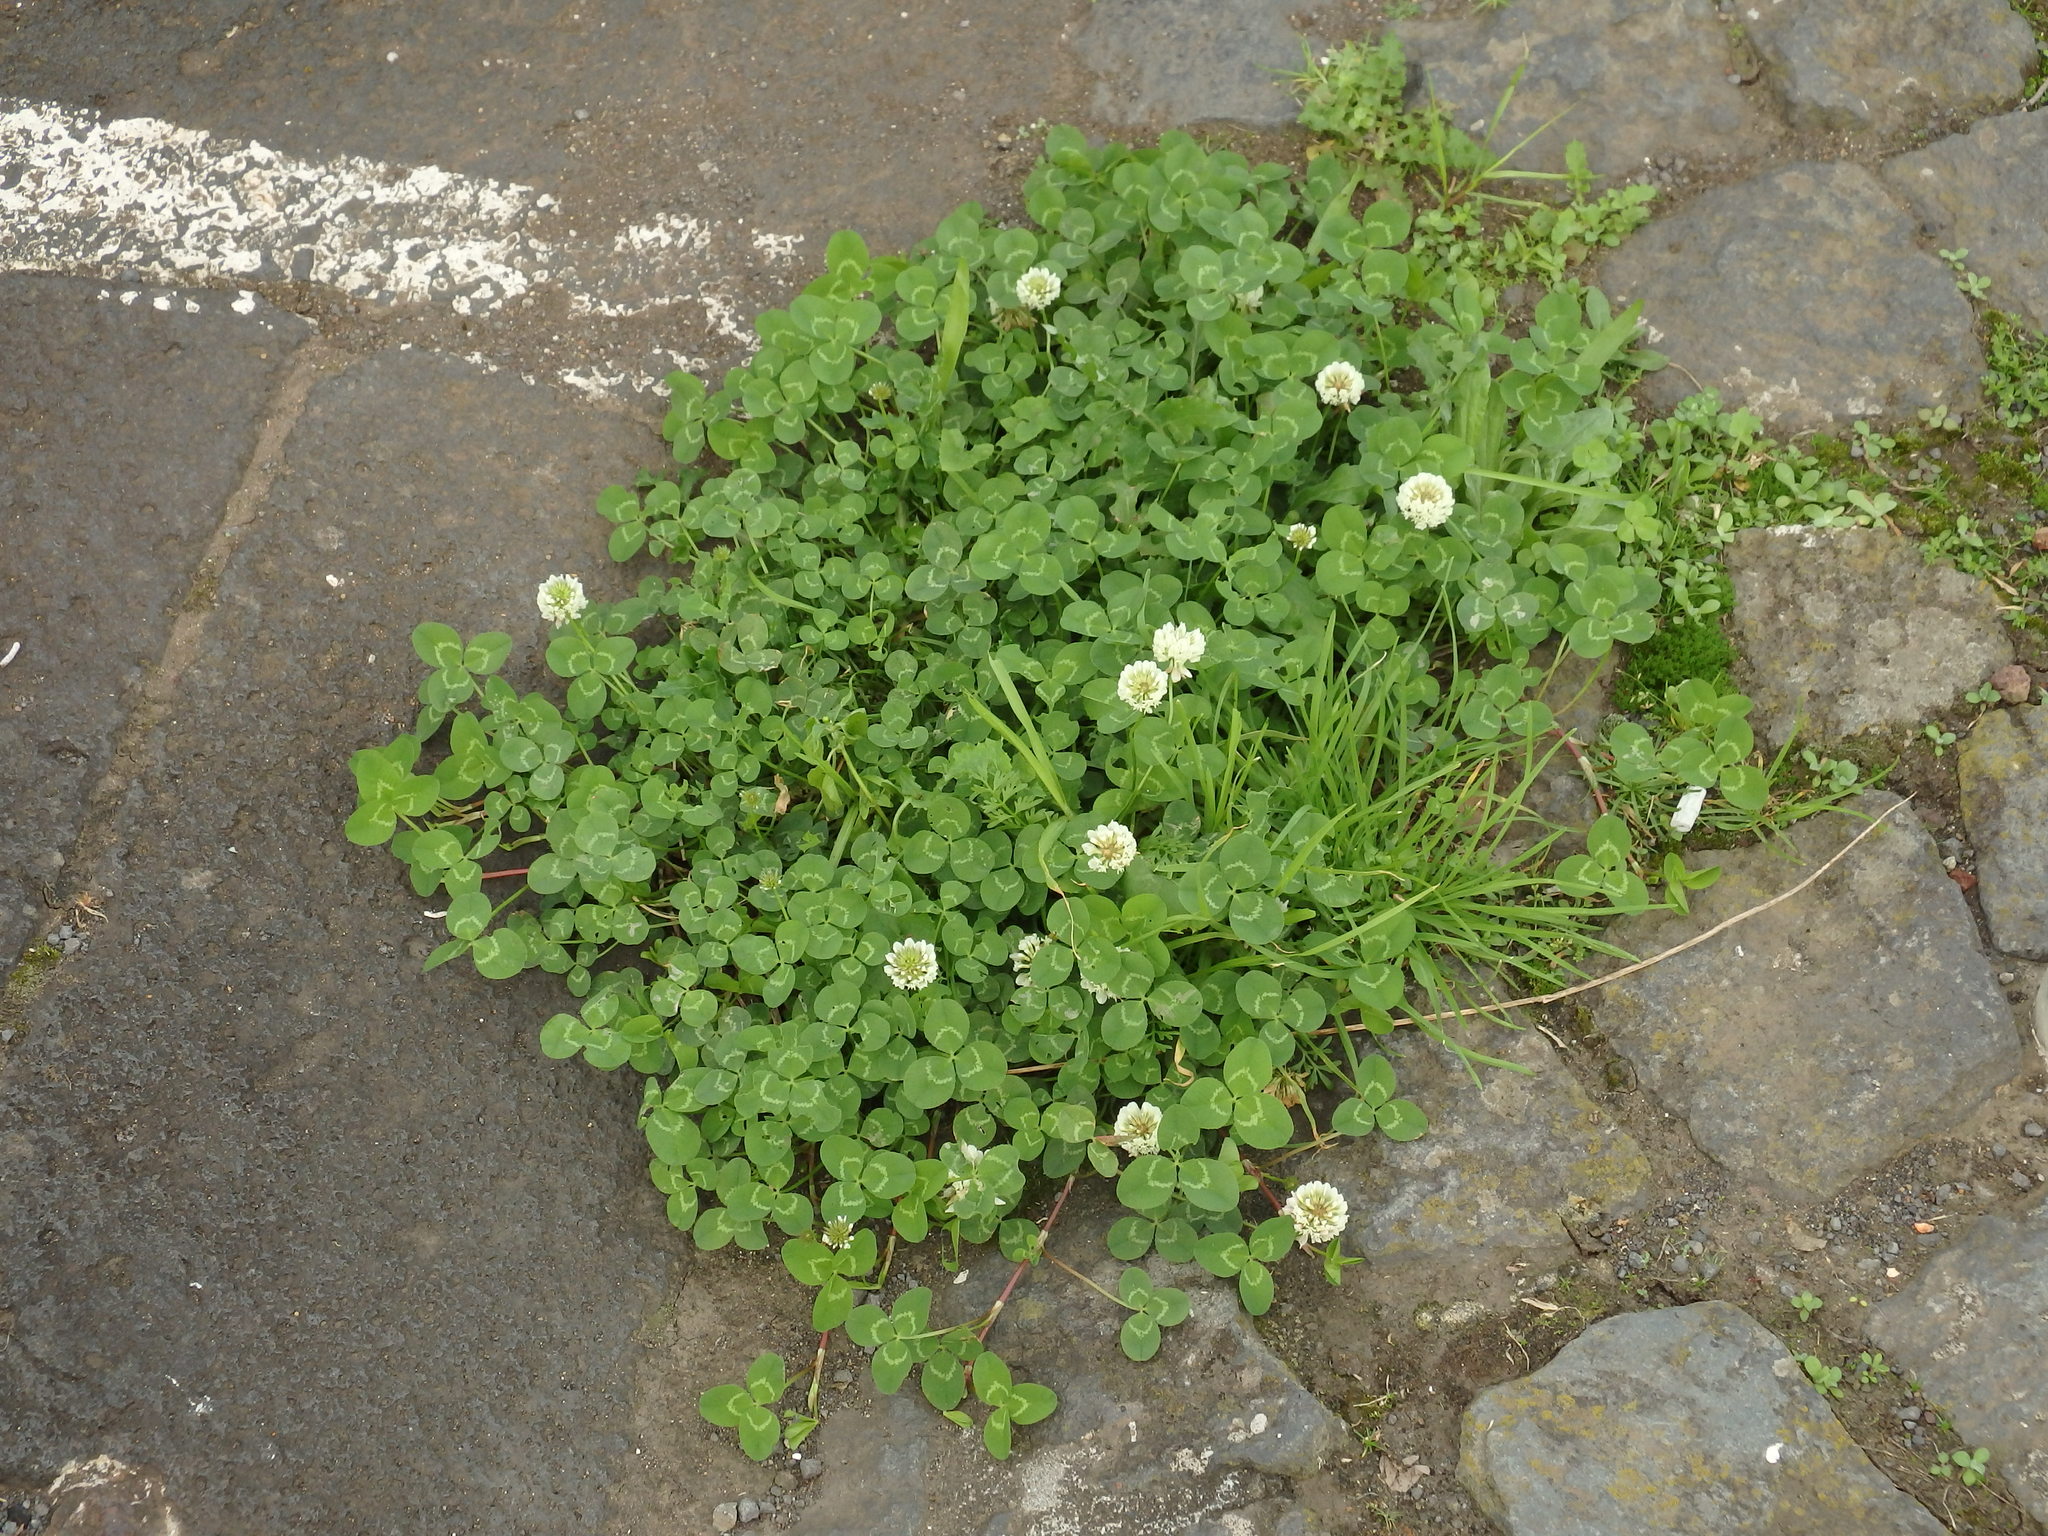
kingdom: Plantae
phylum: Tracheophyta
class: Magnoliopsida
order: Fabales
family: Fabaceae
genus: Trifolium
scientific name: Trifolium repens
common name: White clover
